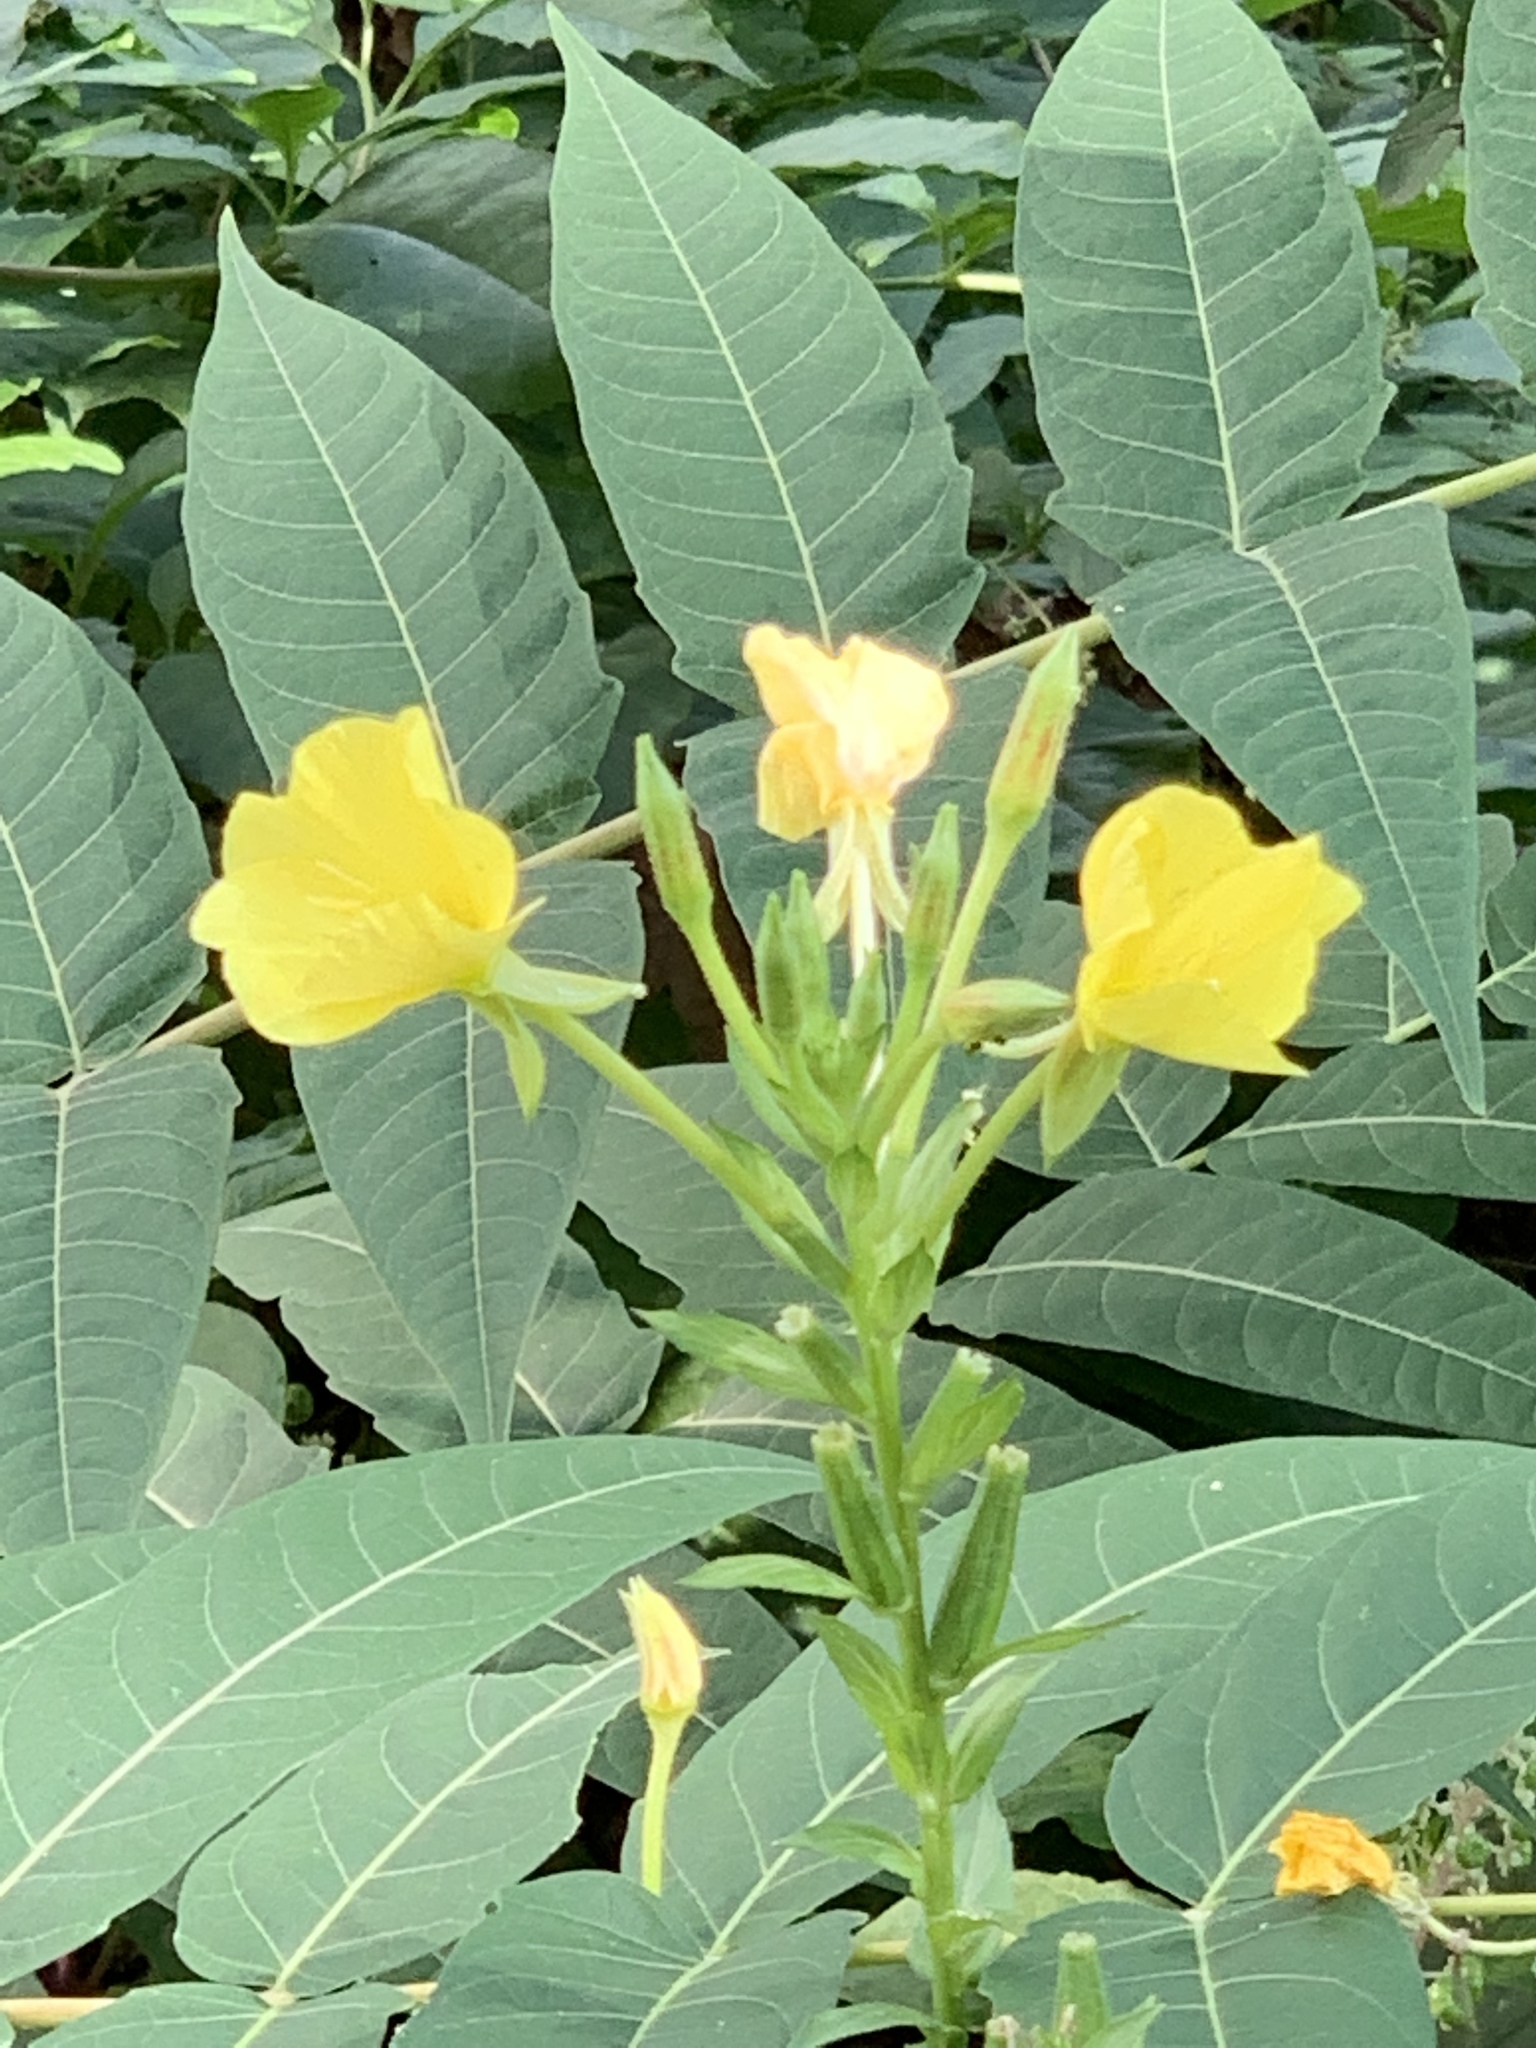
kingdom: Plantae
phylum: Tracheophyta
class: Magnoliopsida
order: Myrtales
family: Onagraceae
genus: Oenothera
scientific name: Oenothera biennis
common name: Common evening-primrose
